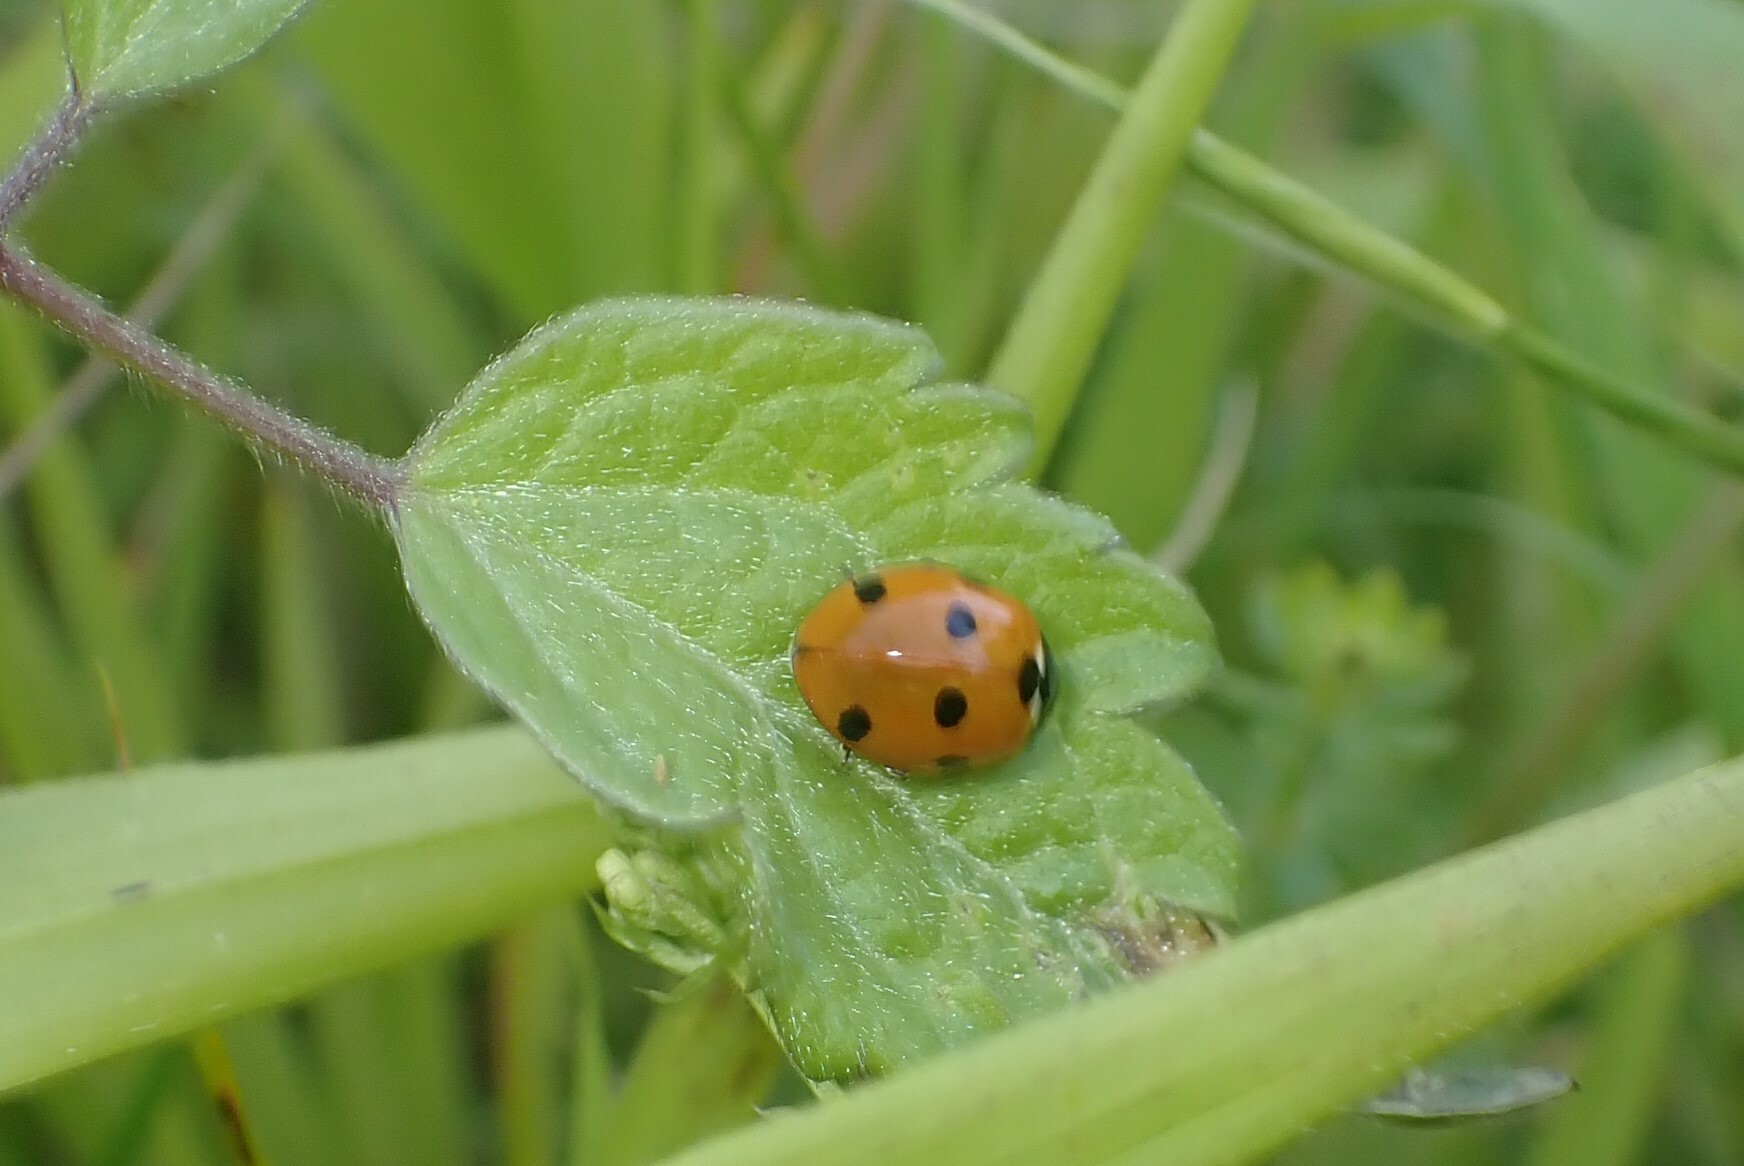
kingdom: Animalia
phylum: Arthropoda
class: Insecta
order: Coleoptera
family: Coccinellidae
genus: Coccinella
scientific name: Coccinella septempunctata
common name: Sevenspotted lady beetle
